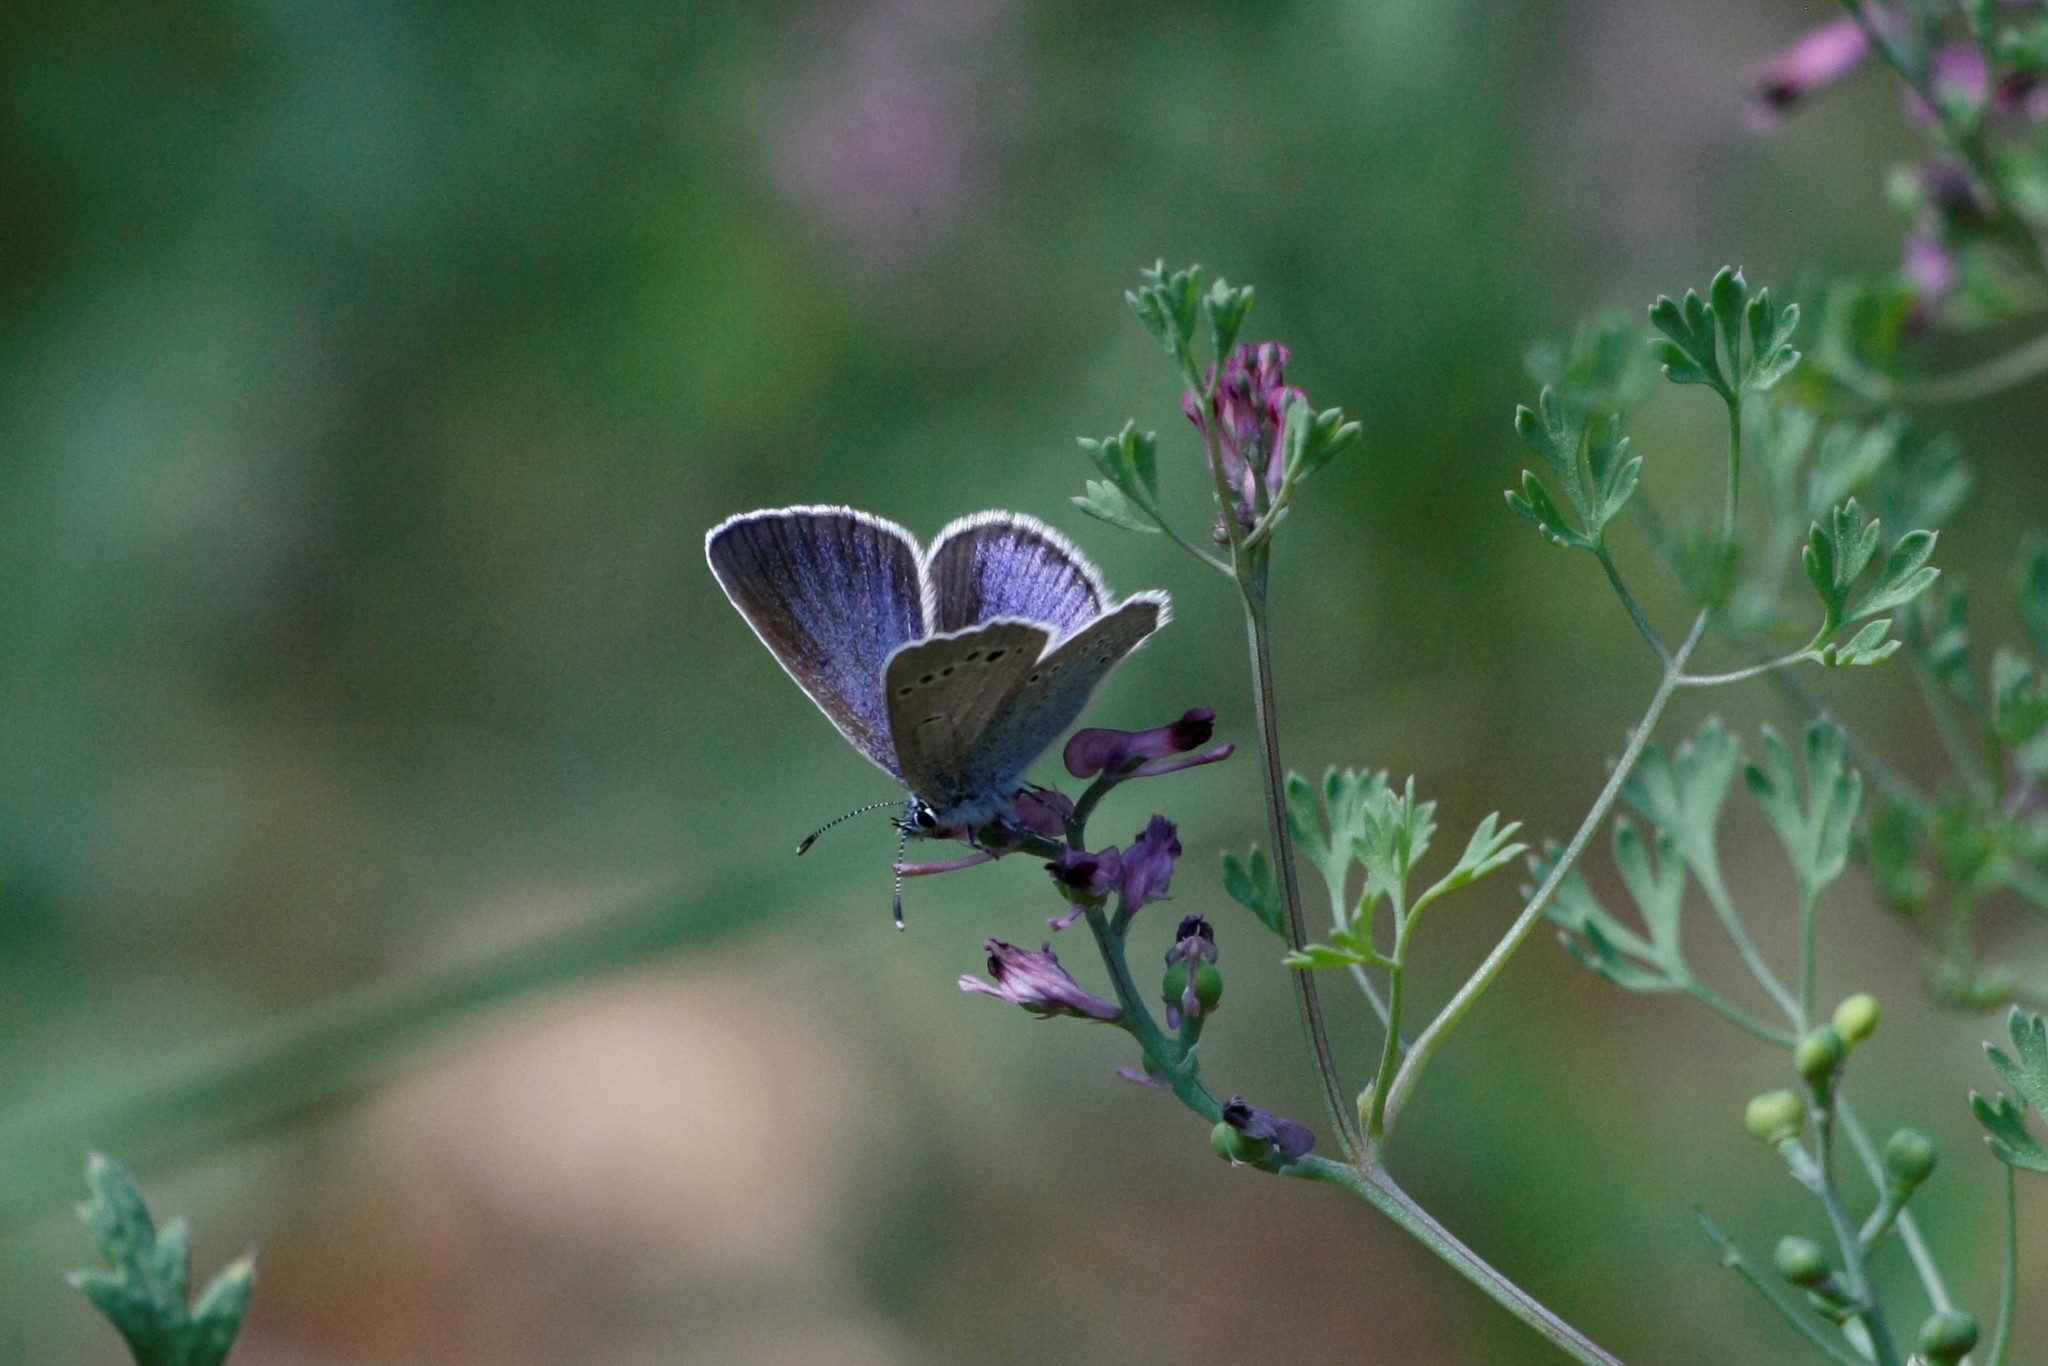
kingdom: Animalia
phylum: Arthropoda
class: Insecta
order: Lepidoptera
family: Lycaenidae
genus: Glaucopsyche
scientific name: Glaucopsyche alexis
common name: Green-underside blue
